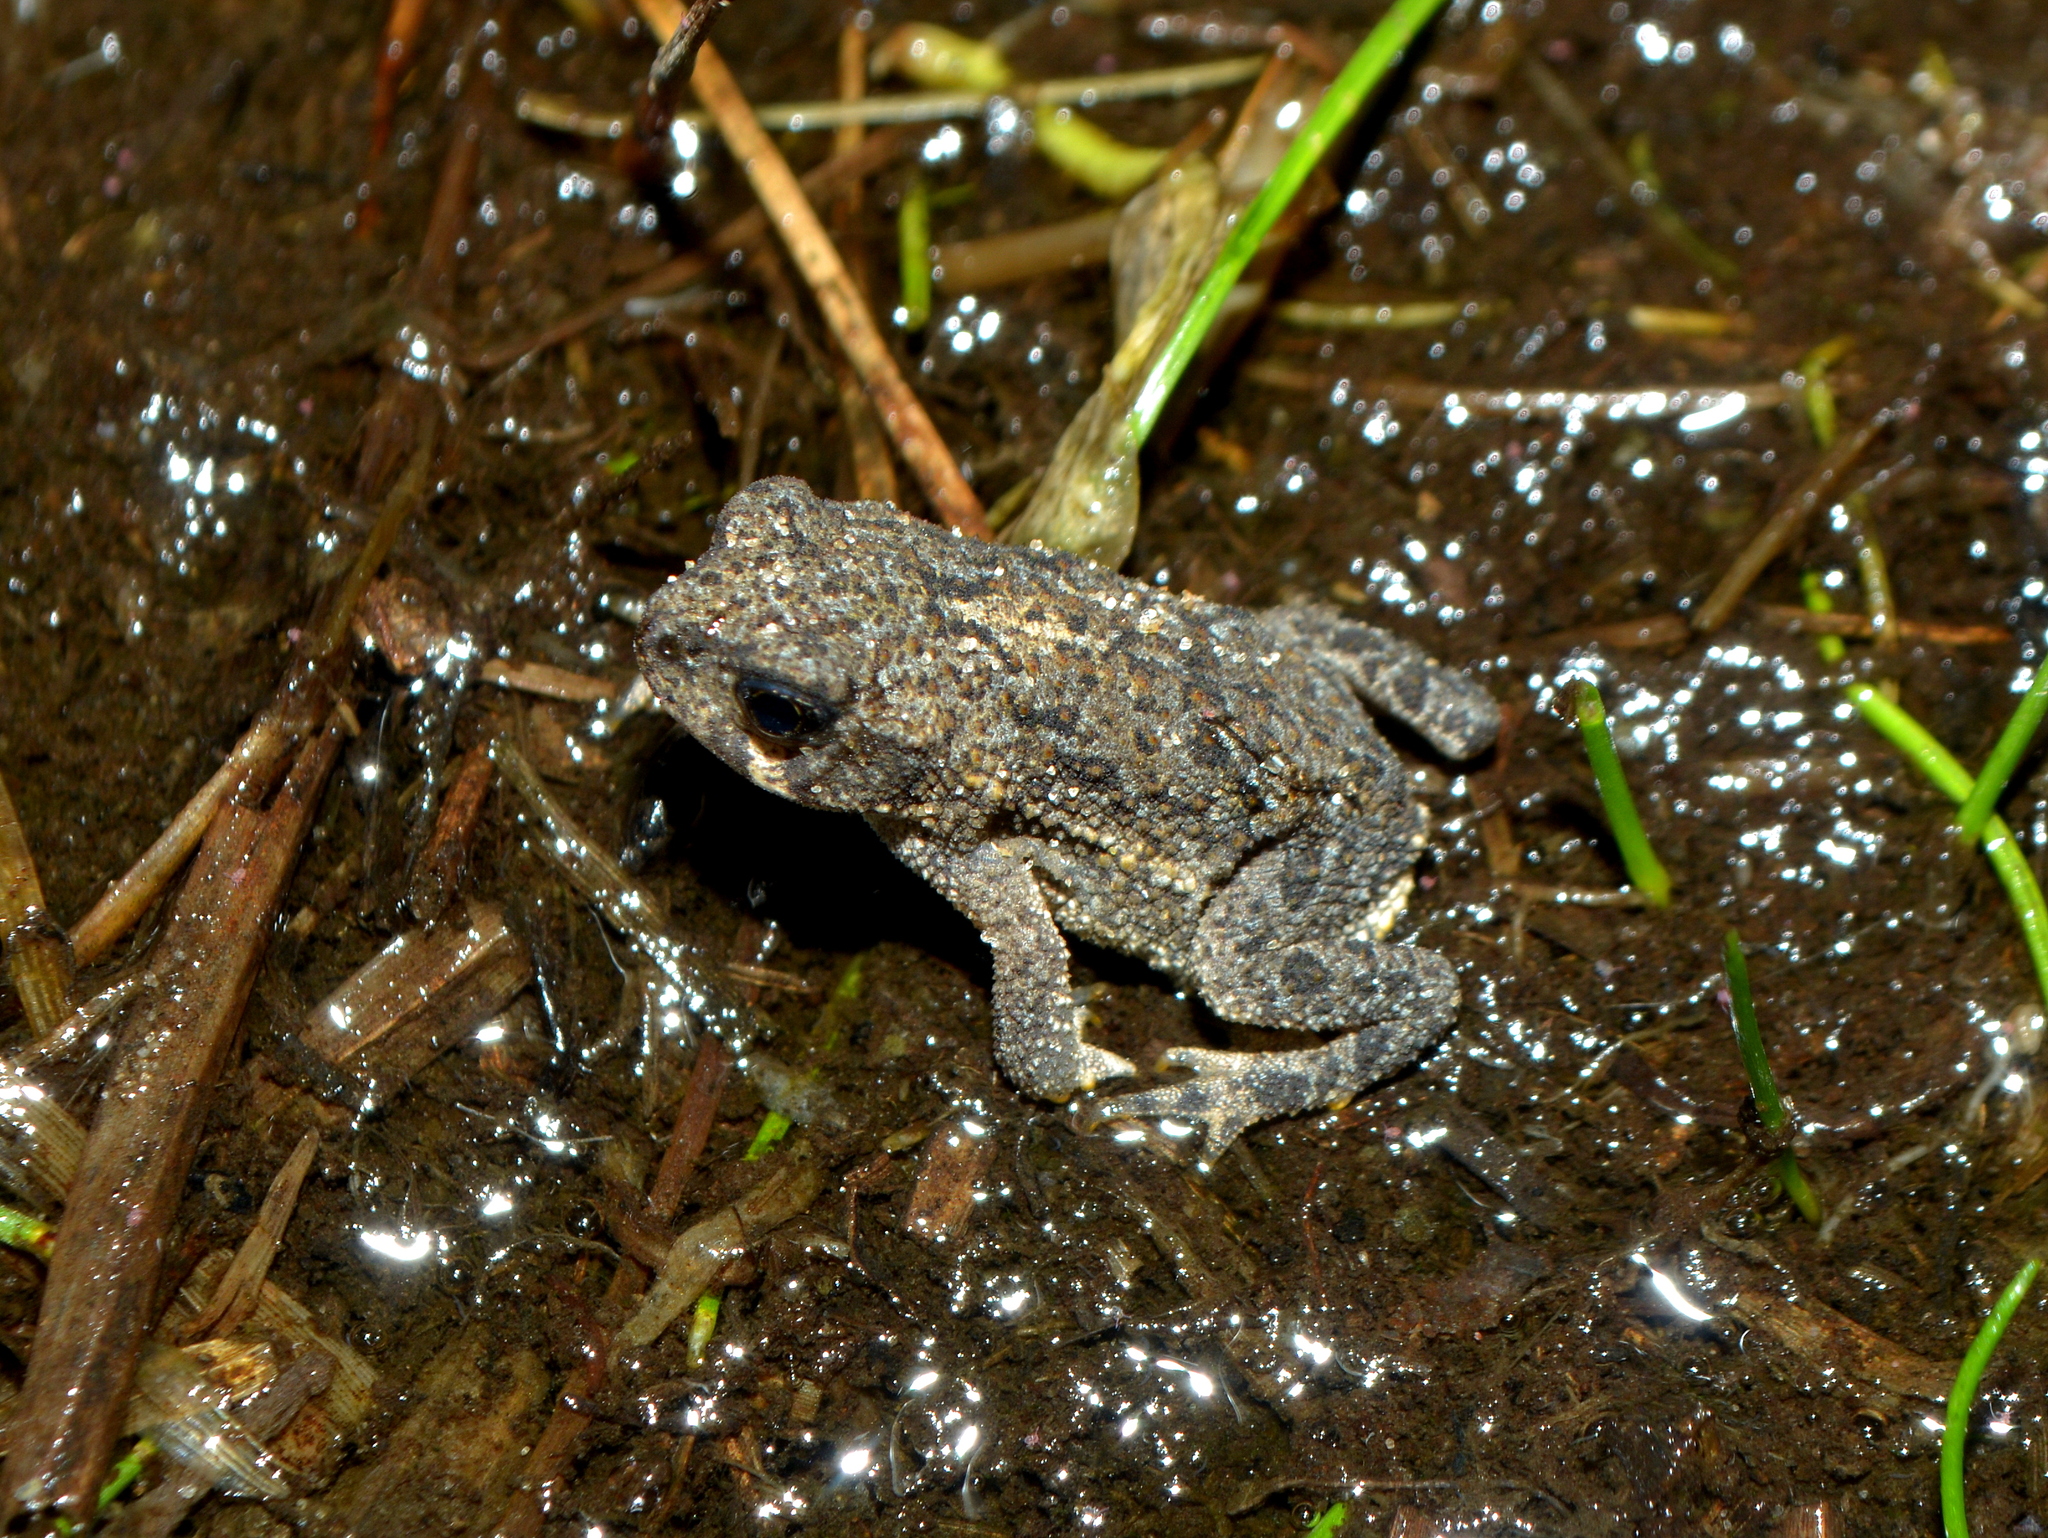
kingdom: Animalia
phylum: Chordata
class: Amphibia
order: Anura
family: Bufonidae
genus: Rhinella
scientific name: Rhinella dorbignyi
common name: D´orbigny’s toad
